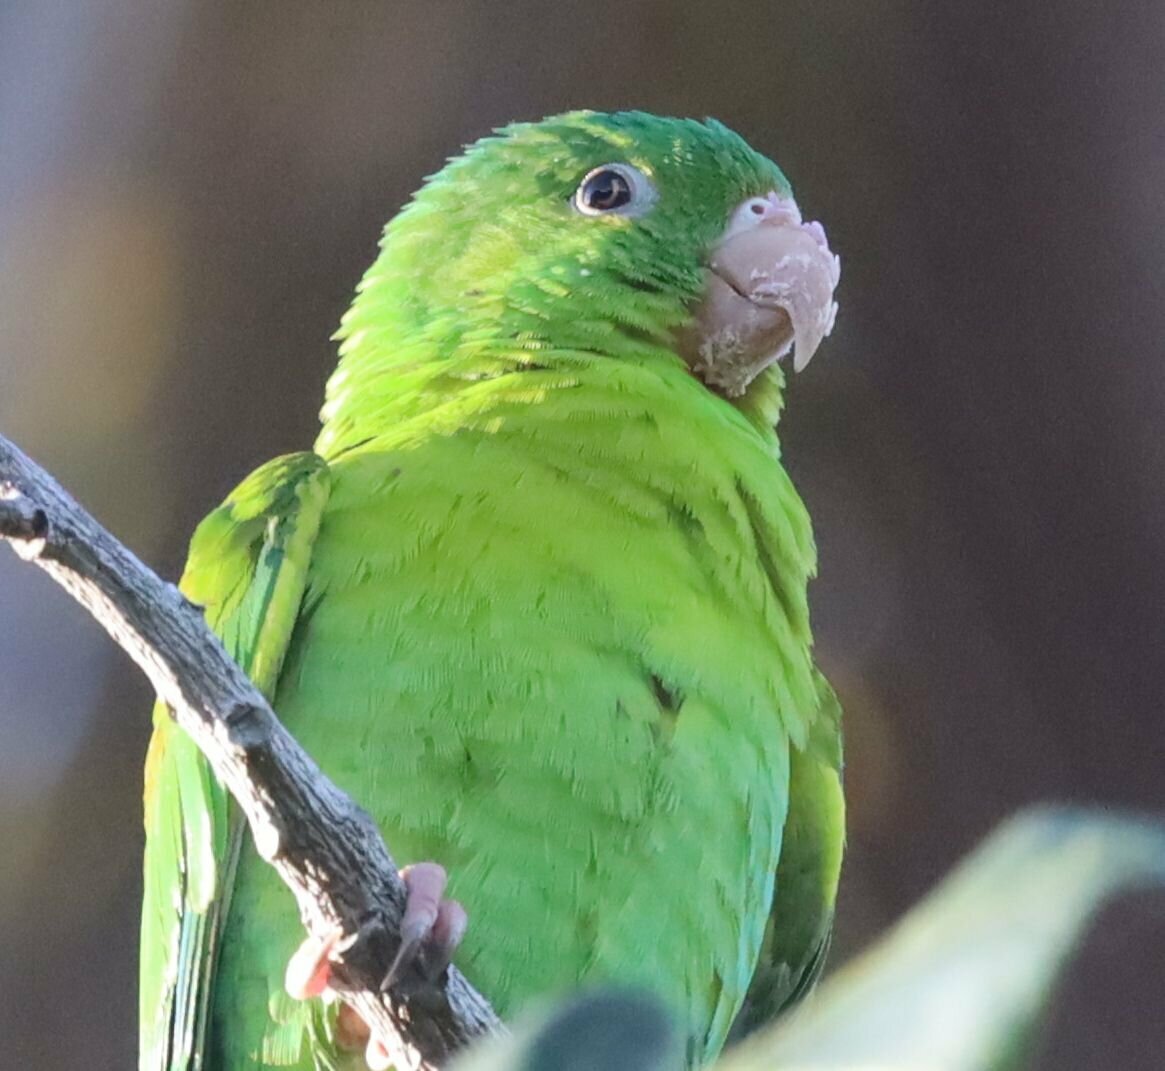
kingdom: Animalia
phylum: Chordata
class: Aves
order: Psittaciformes
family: Psittacidae
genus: Brotogeris
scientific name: Brotogeris jugularis
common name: Orange-chinned parakeet
